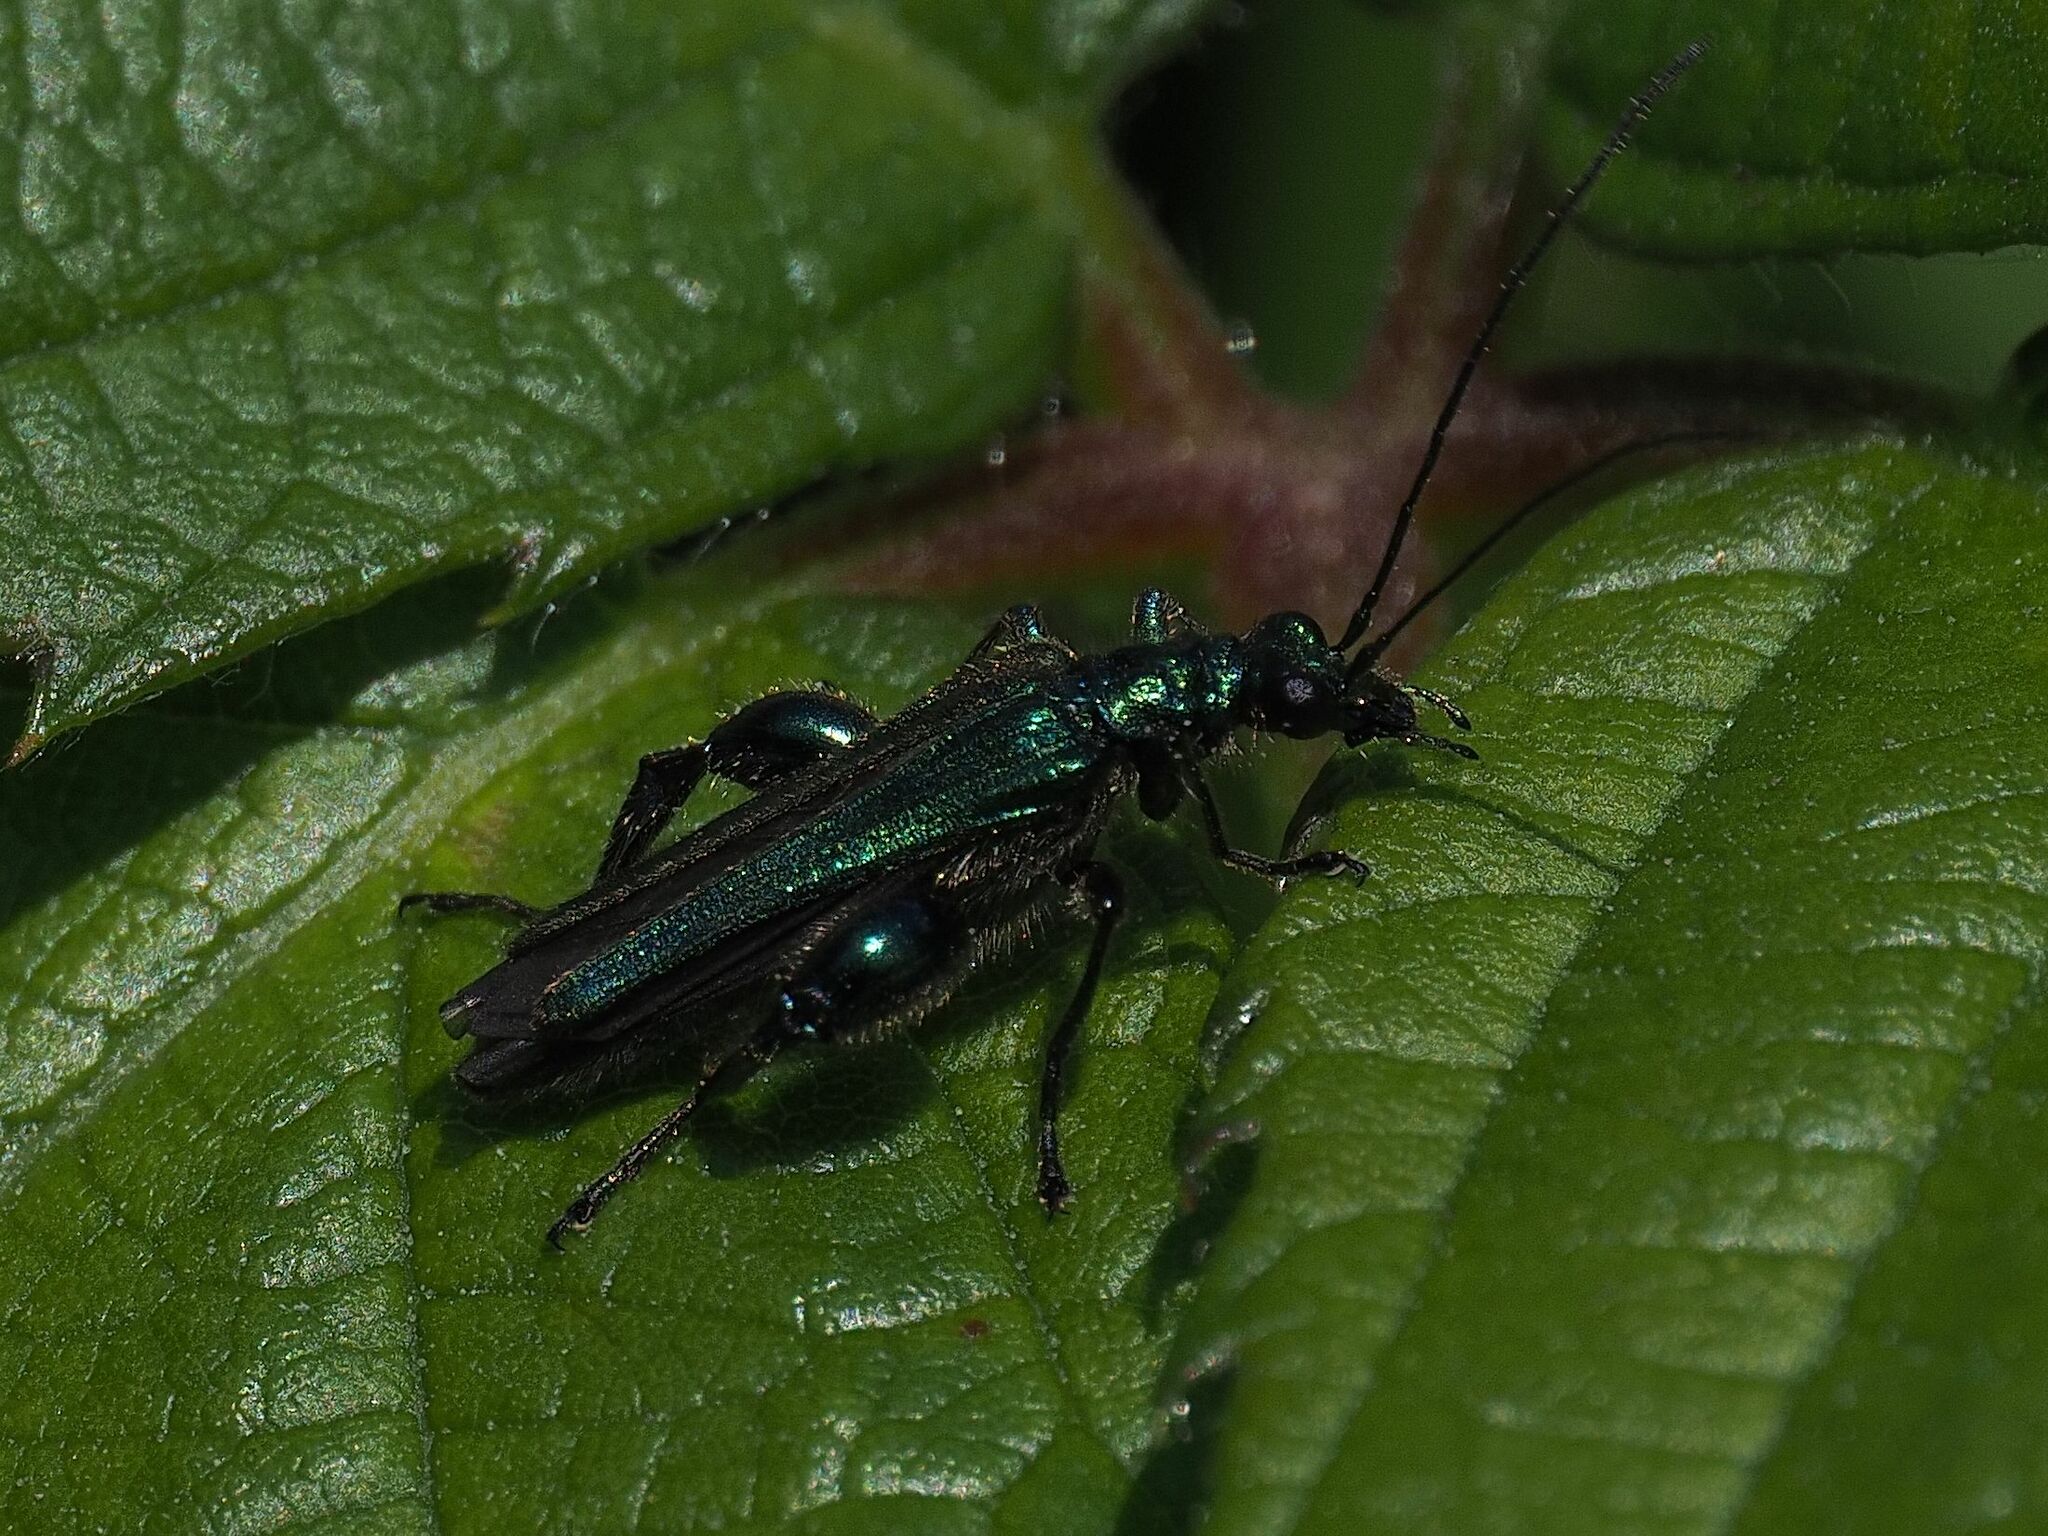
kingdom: Animalia
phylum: Arthropoda
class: Insecta
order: Coleoptera
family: Oedemeridae
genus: Oedemera
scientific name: Oedemera nobilis
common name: Swollen-thighed beetle
